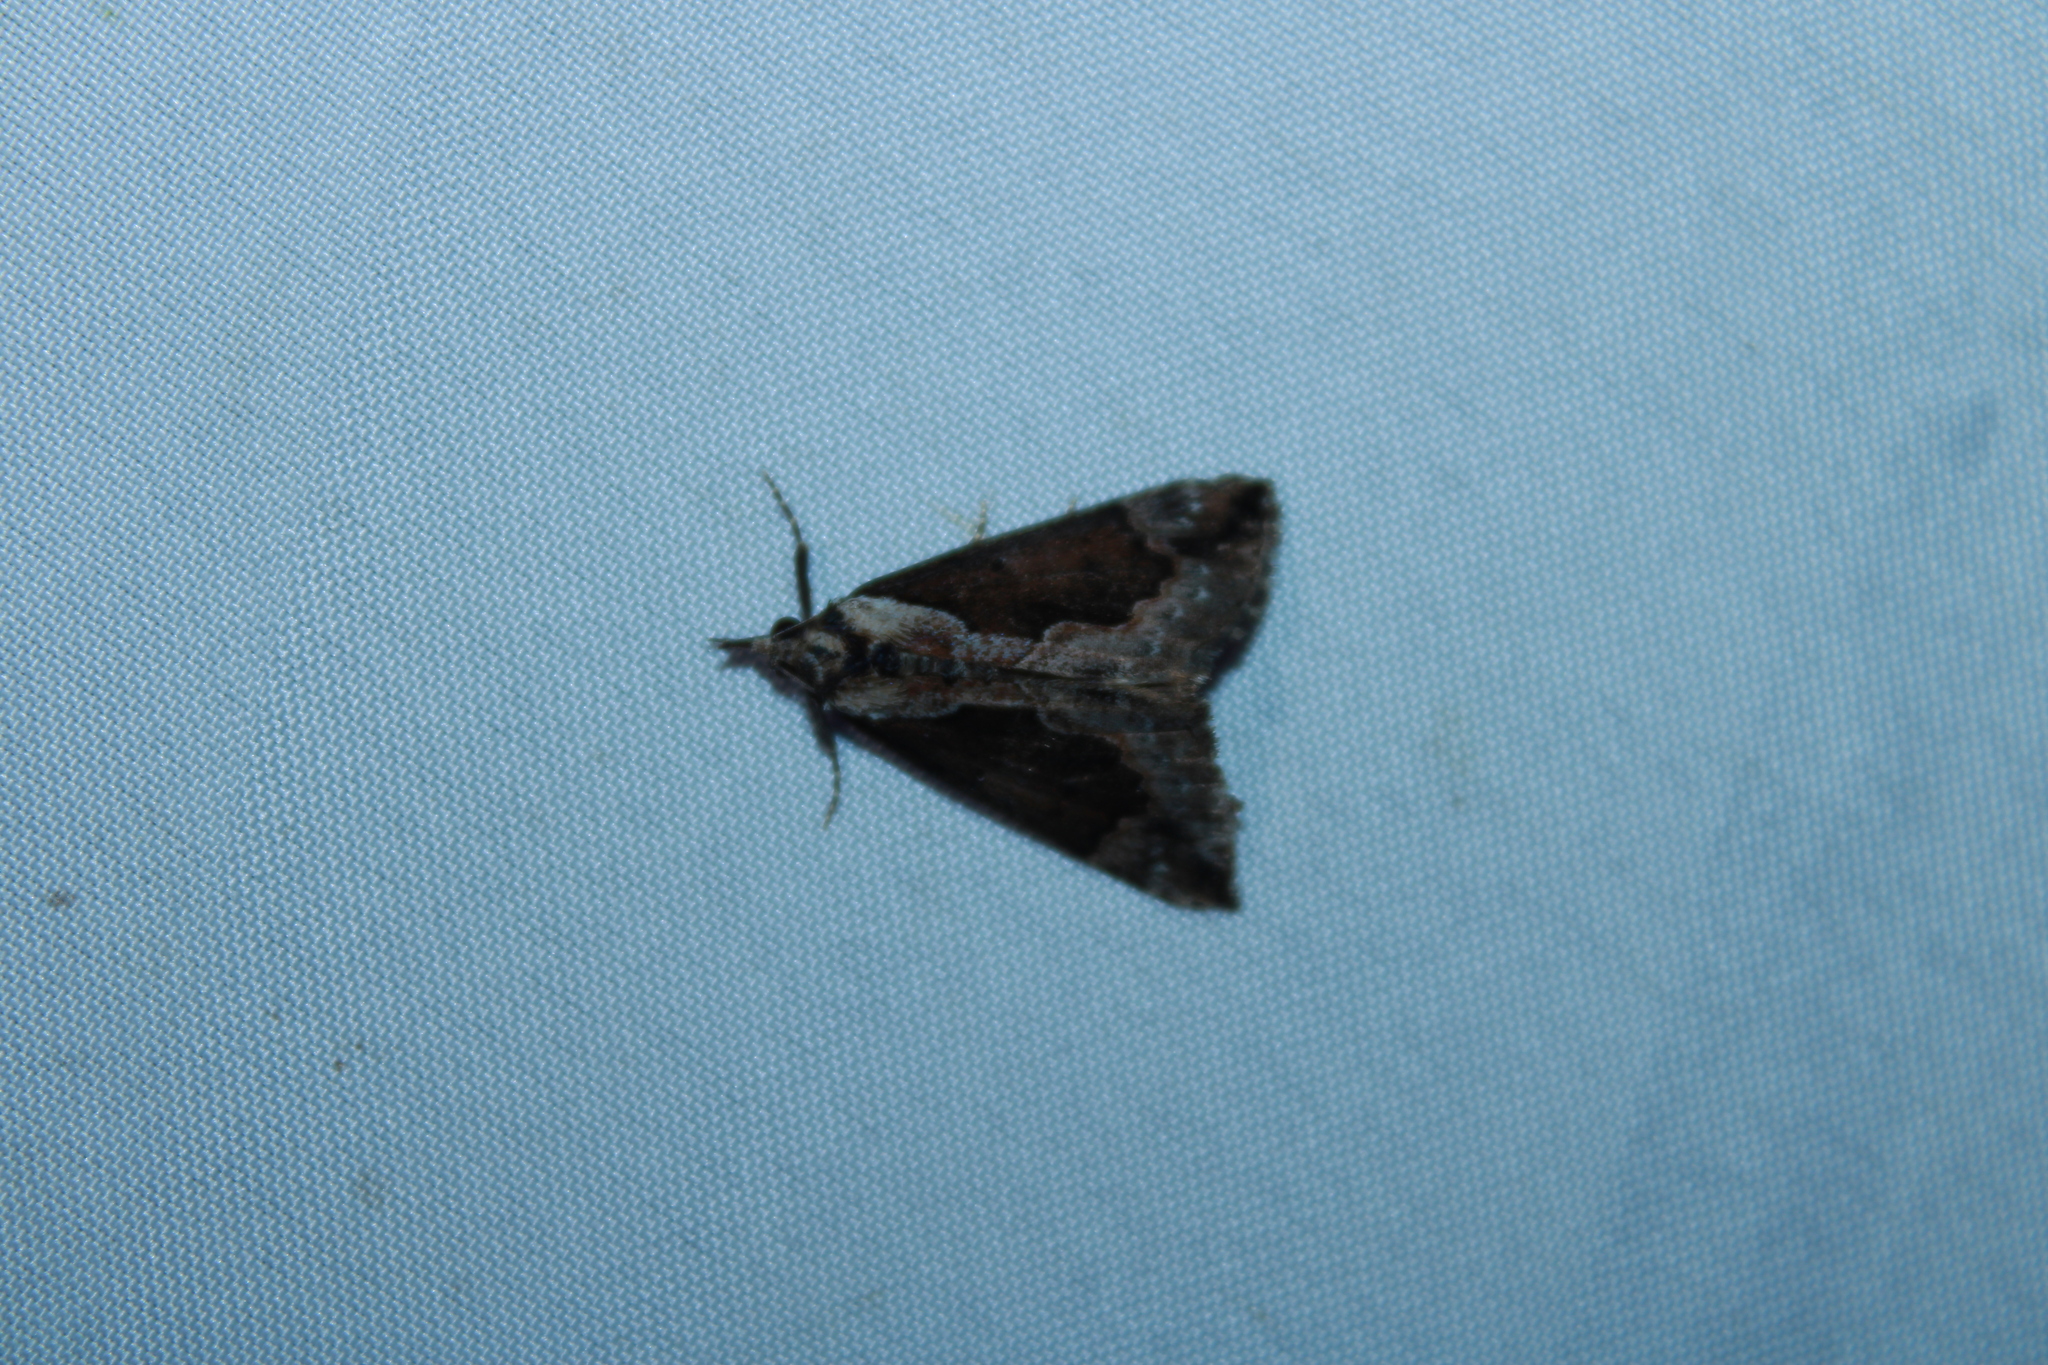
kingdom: Animalia
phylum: Arthropoda
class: Insecta
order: Lepidoptera
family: Erebidae
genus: Hypena
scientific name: Hypena baltimoralis
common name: Baltimore snout
